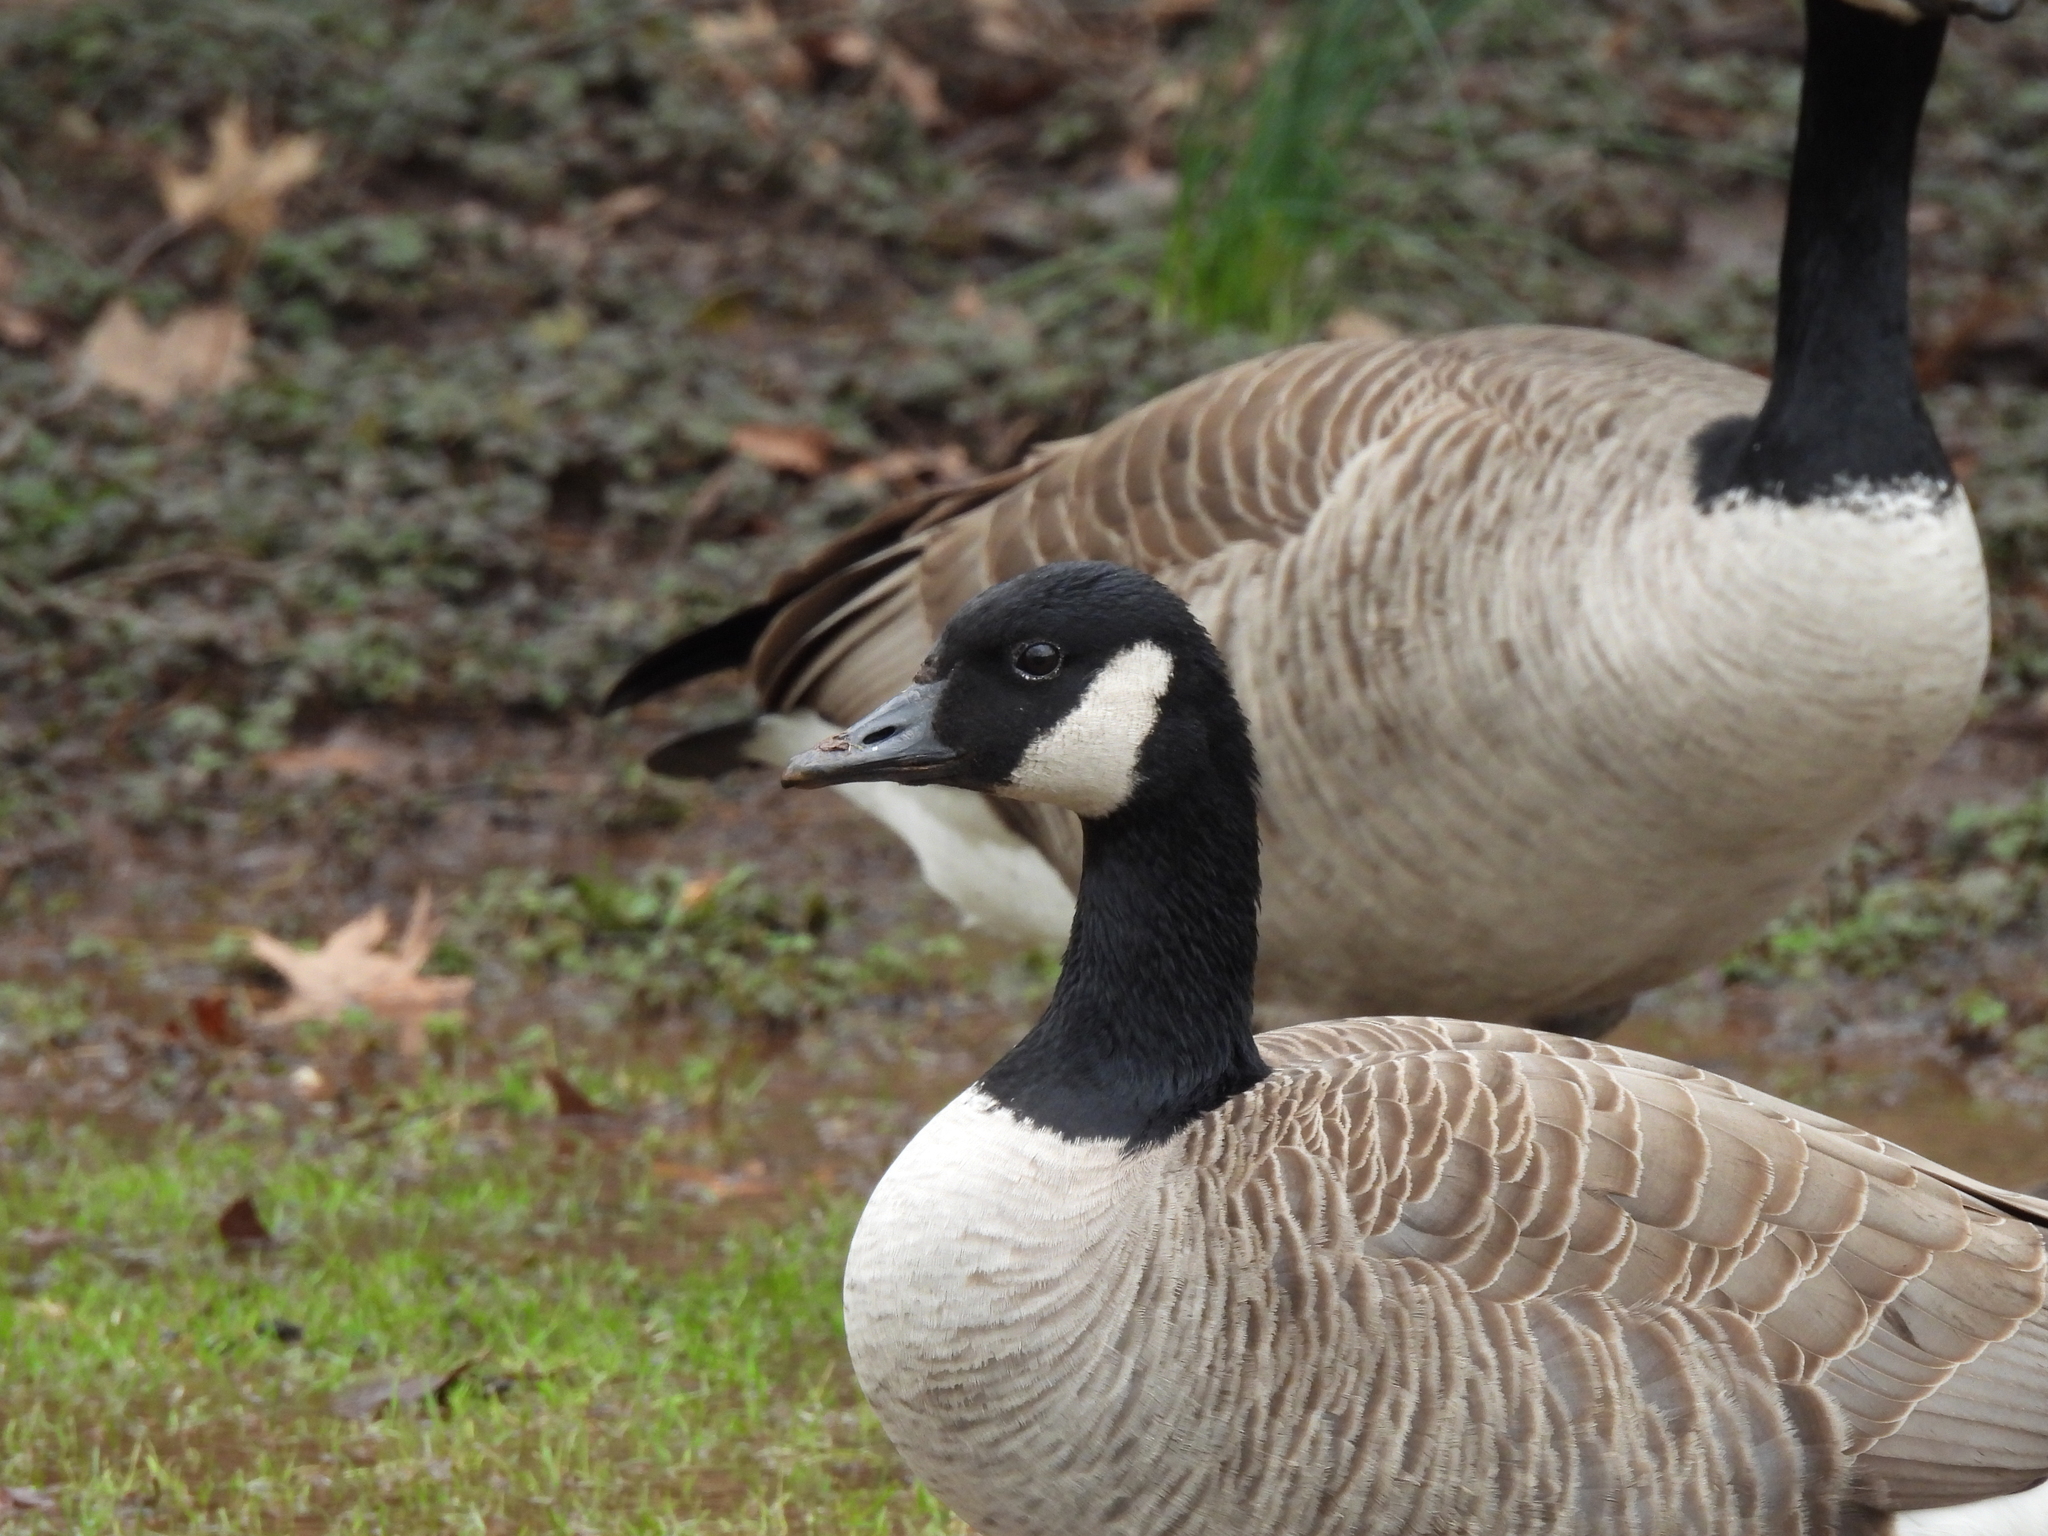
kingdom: Animalia
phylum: Chordata
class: Aves
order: Anseriformes
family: Anatidae
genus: Branta
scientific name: Branta canadensis
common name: Canada goose
